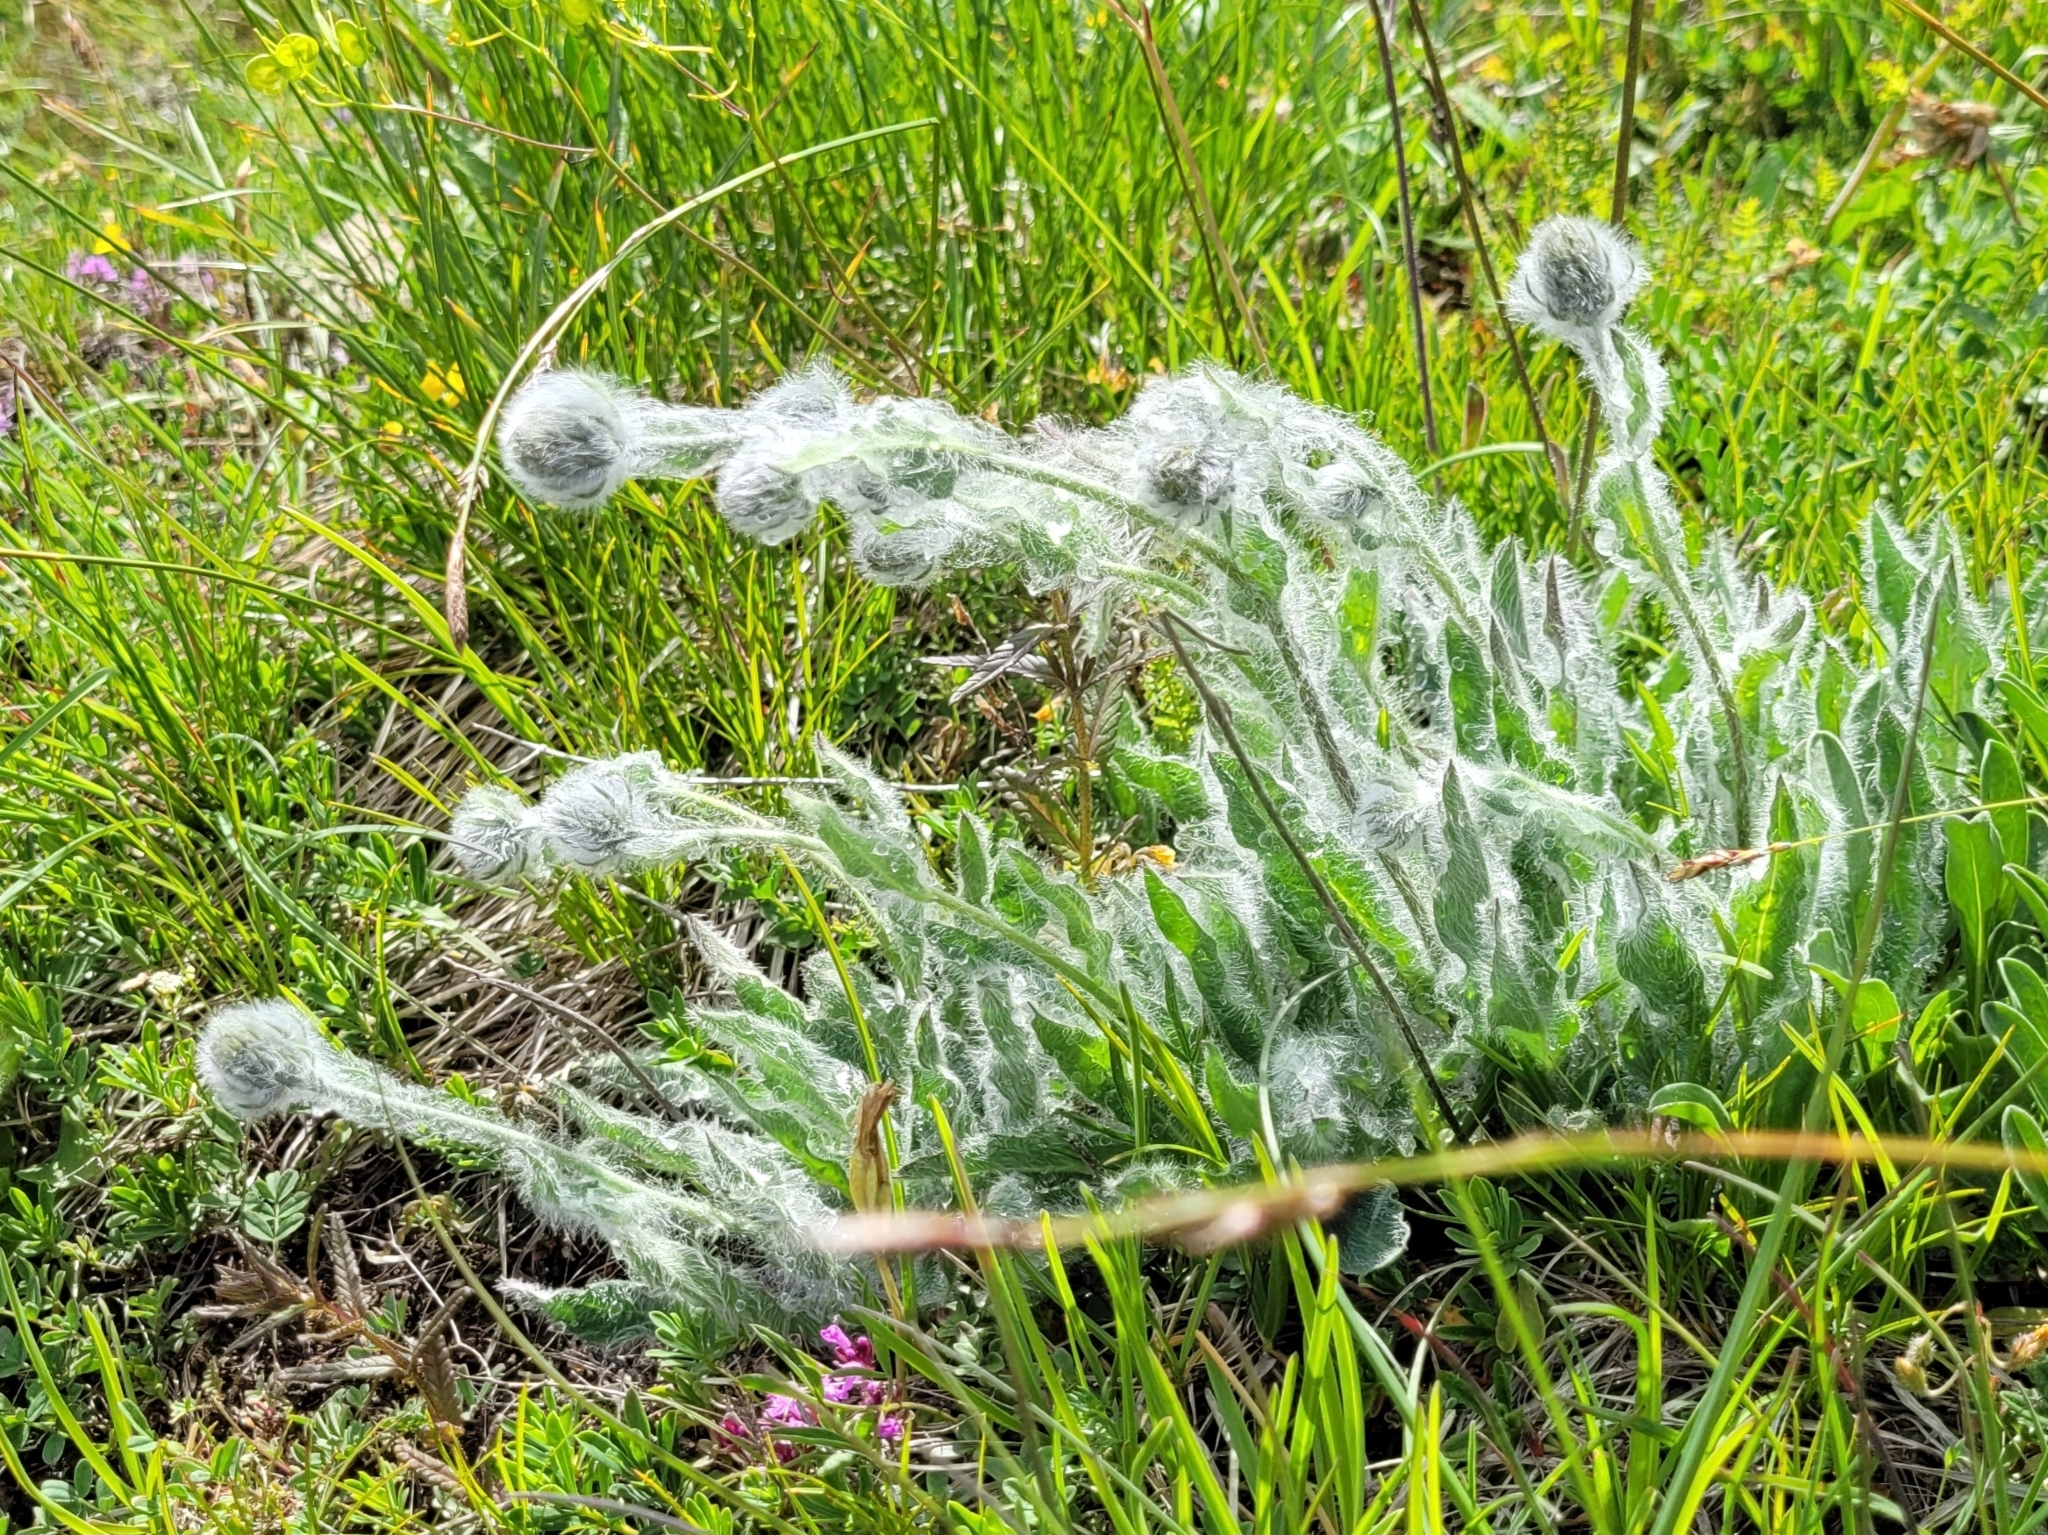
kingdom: Plantae
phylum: Tracheophyta
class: Magnoliopsida
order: Asterales
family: Asteraceae
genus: Hieracium
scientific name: Hieracium pilosum
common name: Fimbriate-pitted hawkweed
